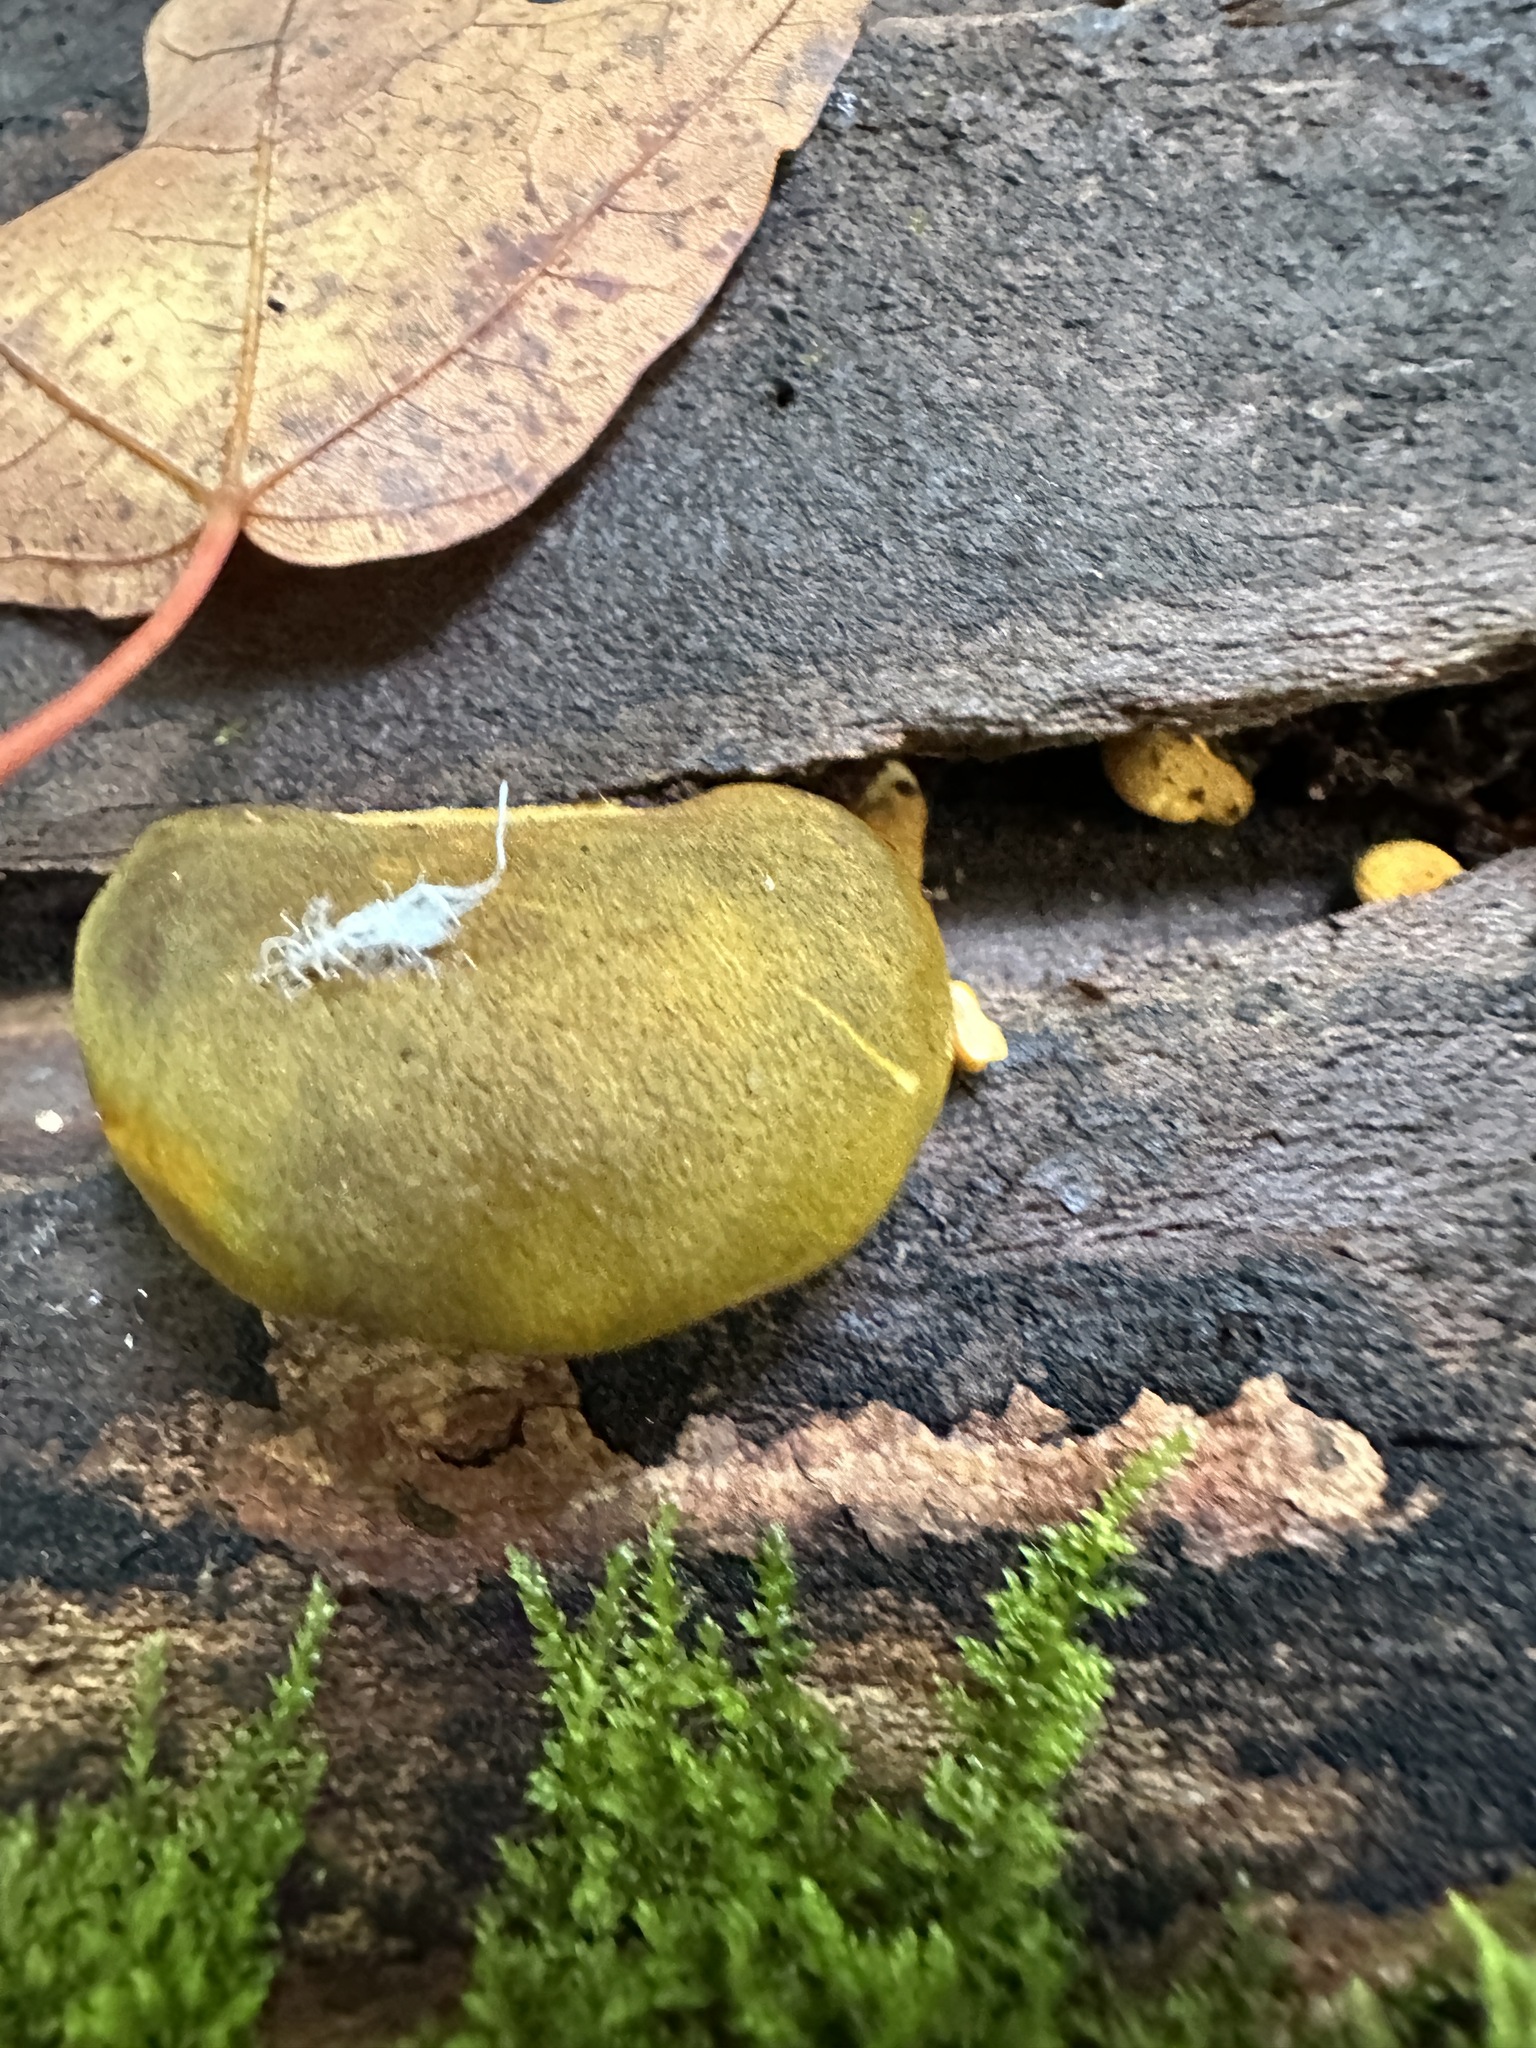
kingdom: Fungi
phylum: Basidiomycota
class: Agaricomycetes
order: Agaricales
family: Sarcomyxaceae
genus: Sarcomyxa
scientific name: Sarcomyxa serotina
